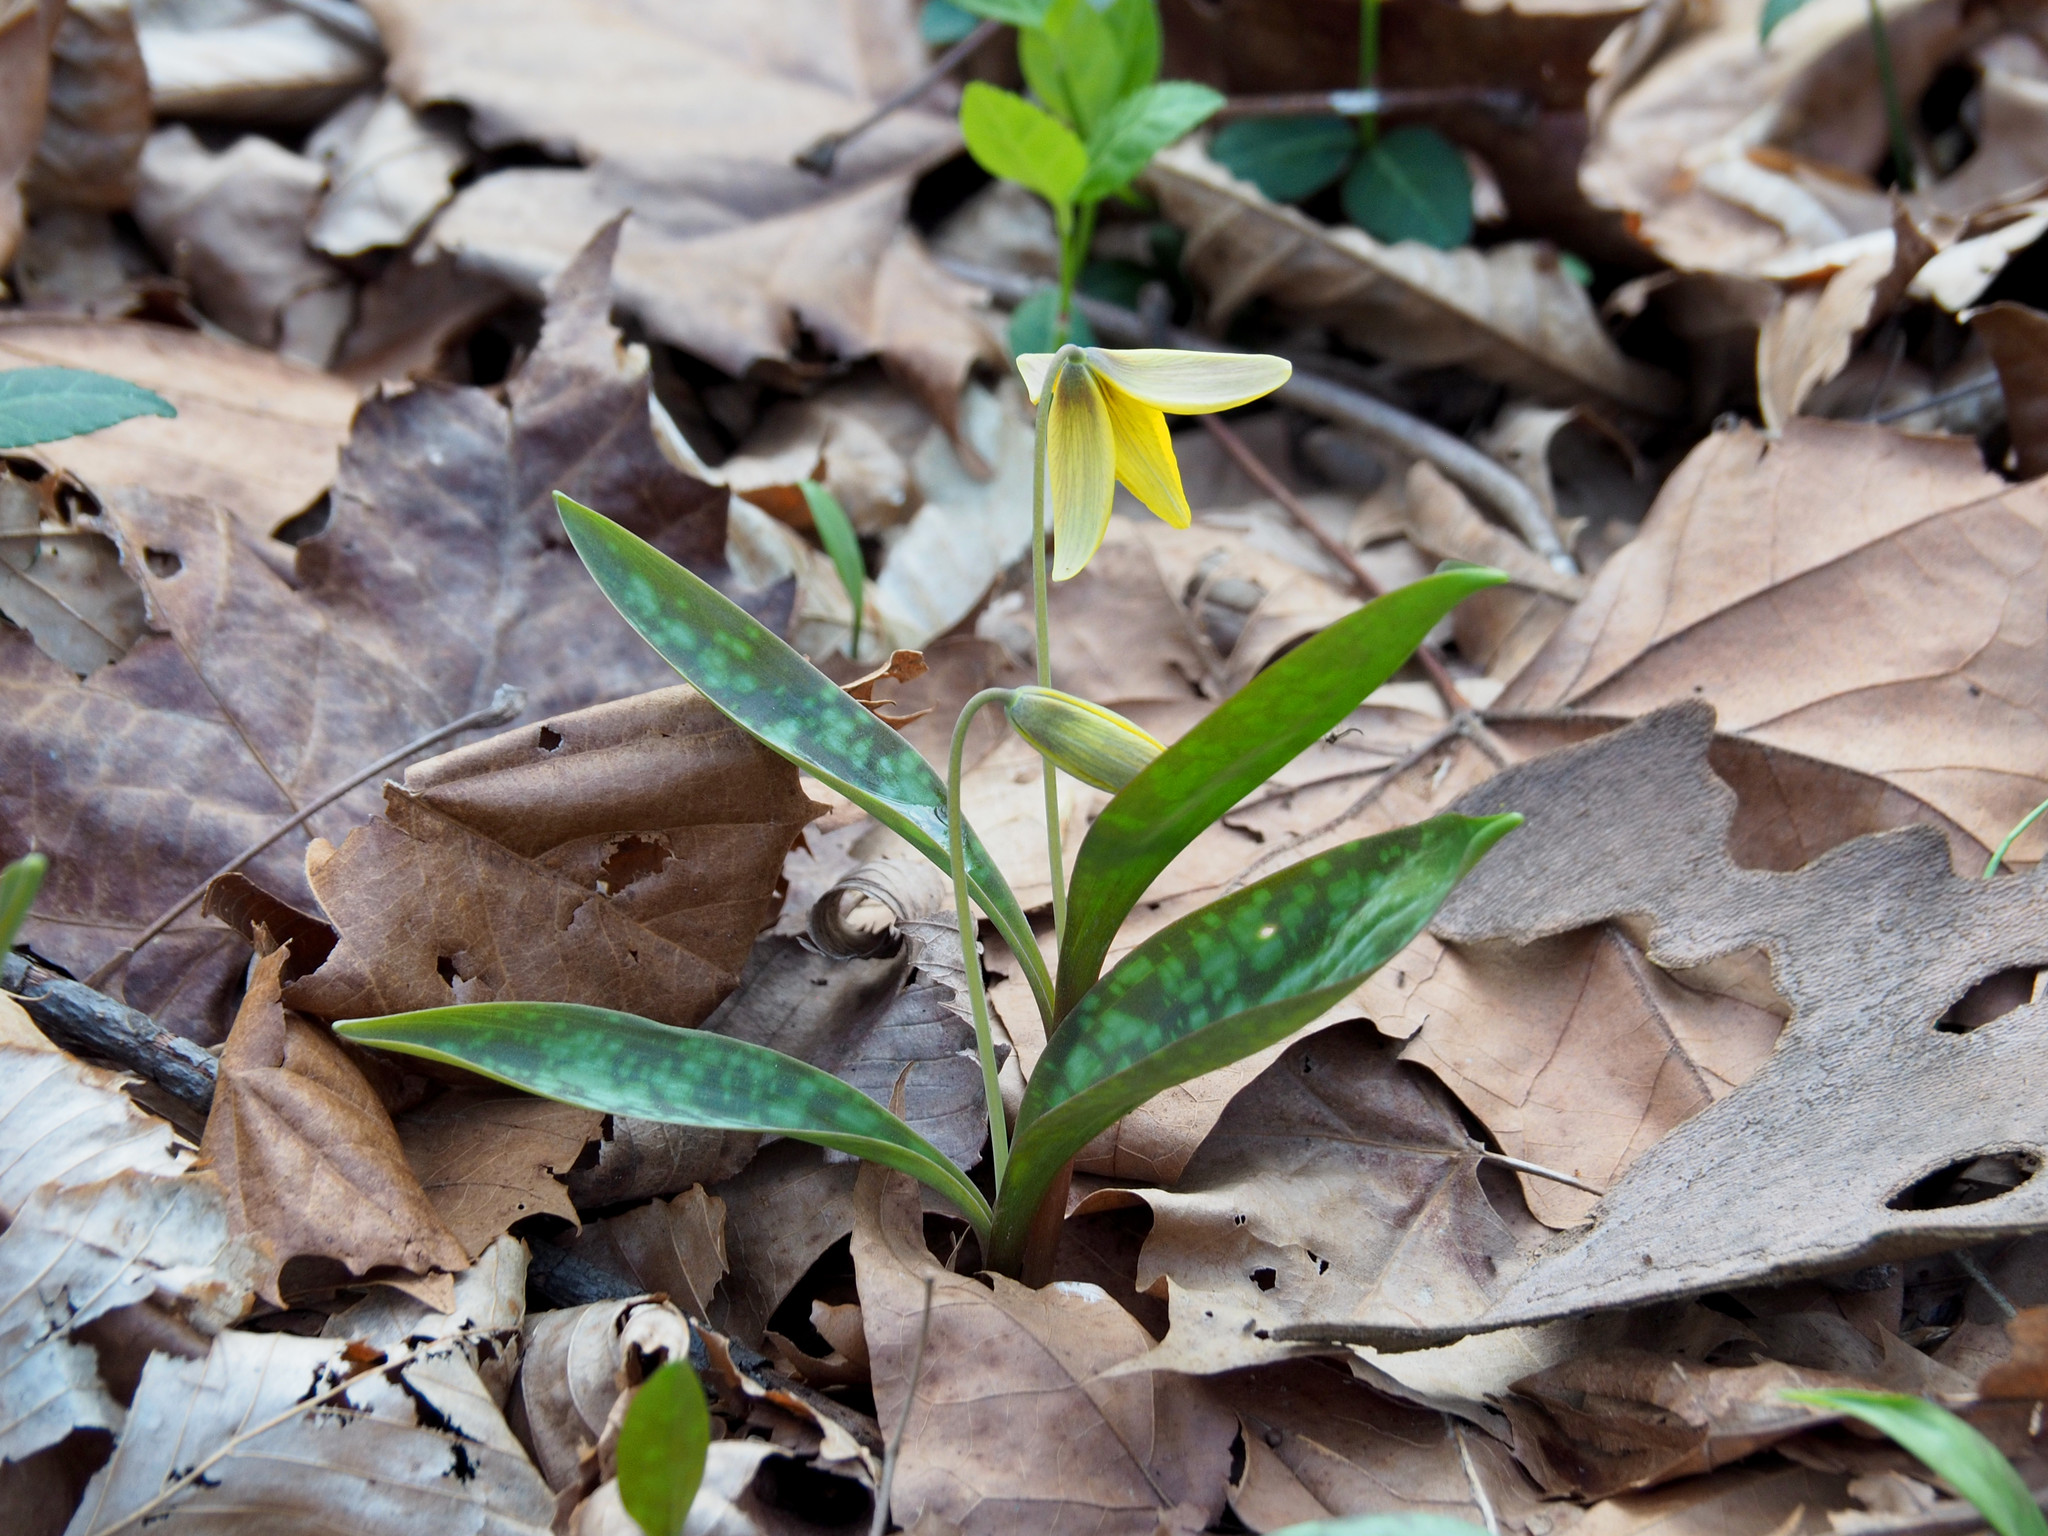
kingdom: Plantae
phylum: Tracheophyta
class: Liliopsida
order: Liliales
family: Liliaceae
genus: Erythronium
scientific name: Erythronium americanum
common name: Yellow adder's-tongue
